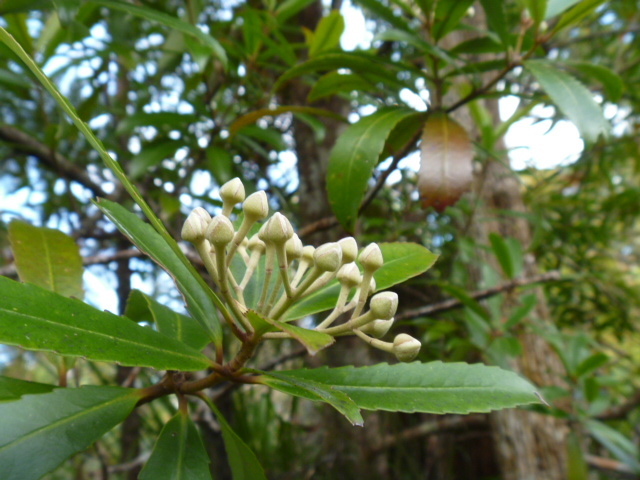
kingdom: Plantae
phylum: Tracheophyta
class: Magnoliopsida
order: Crossosomatales
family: Ixerbaceae
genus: Ixerba
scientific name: Ixerba brexioides
